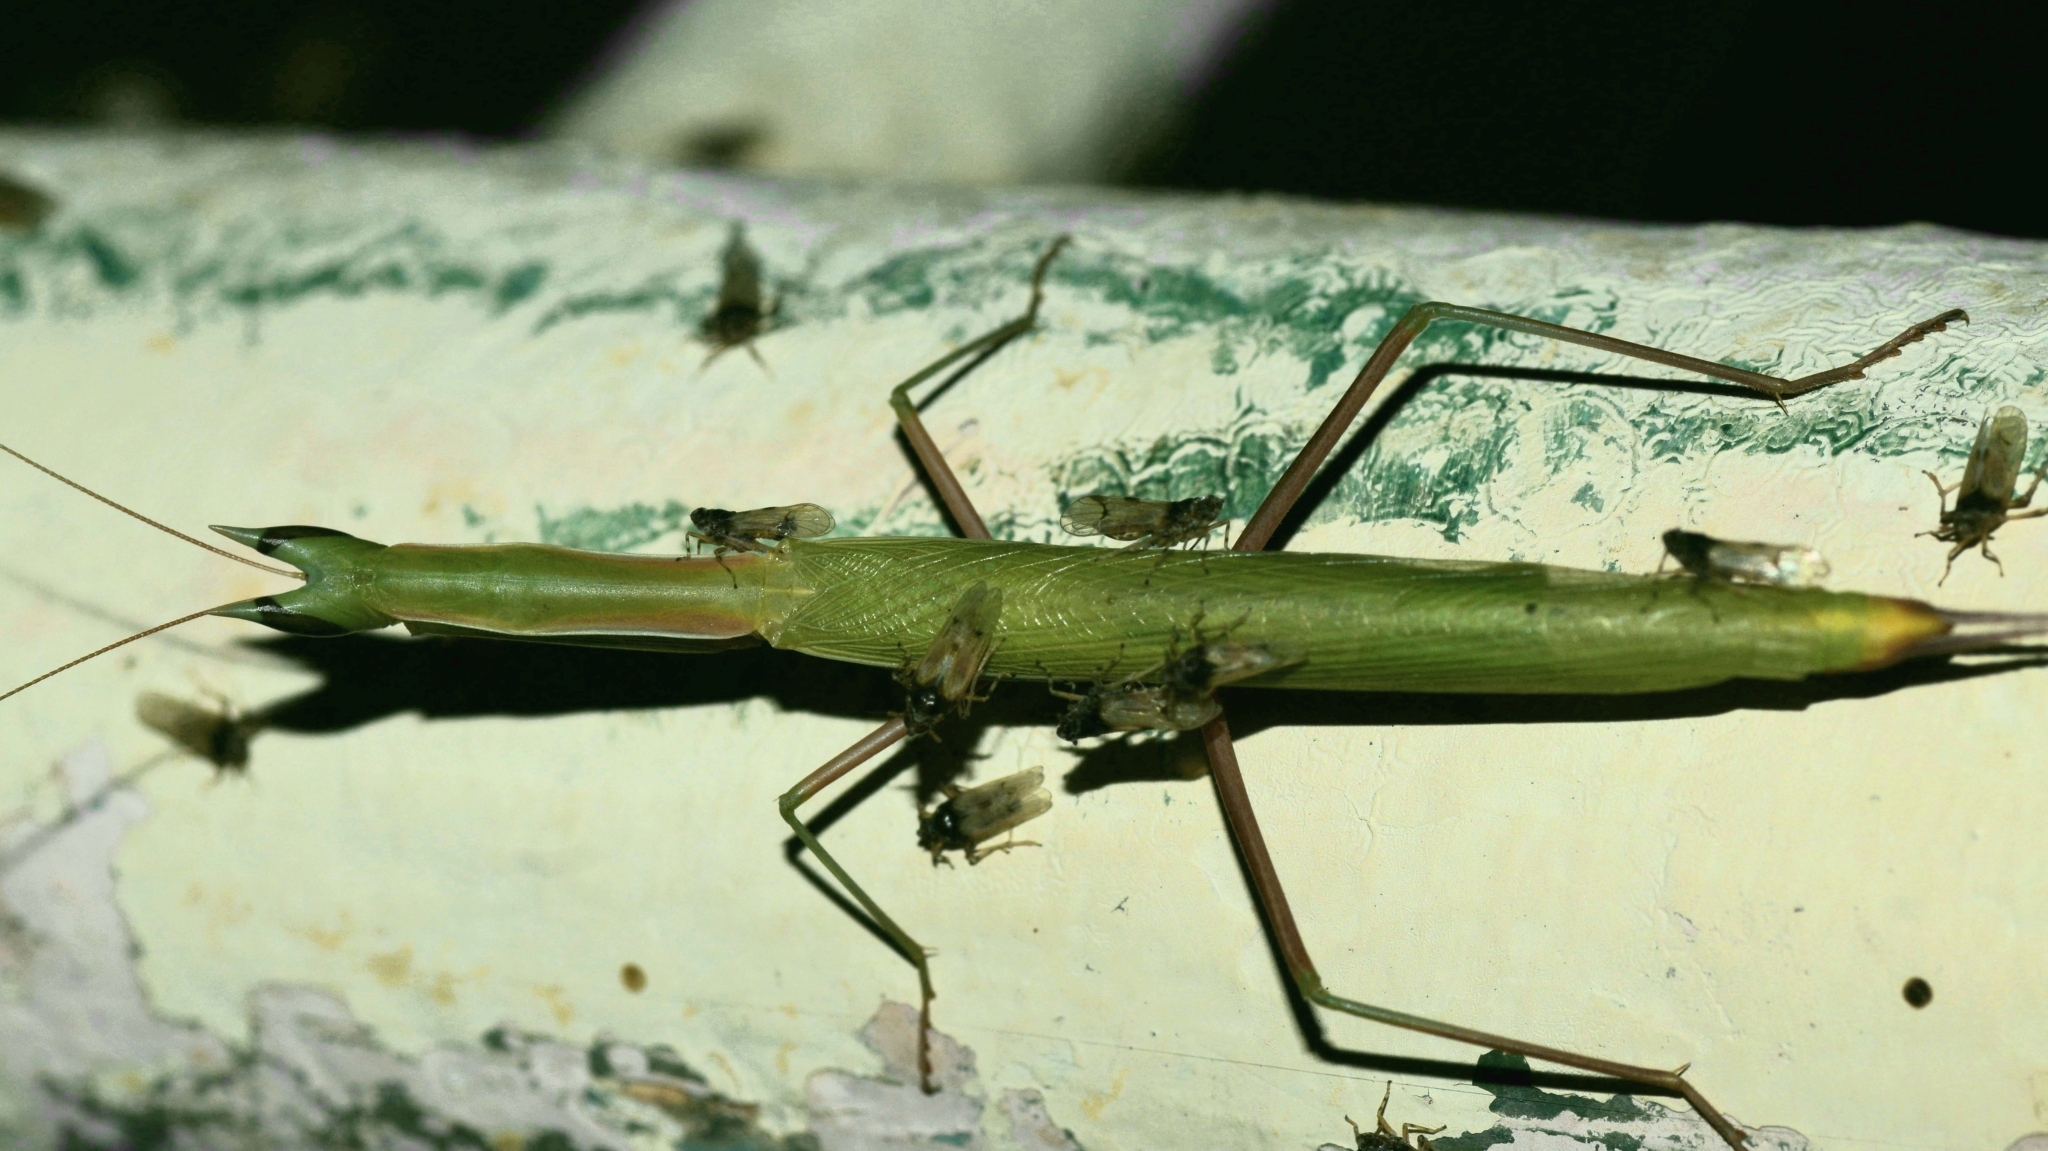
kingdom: Animalia
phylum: Arthropoda
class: Insecta
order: Mantodea
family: Eremiaphilidae
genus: Episcopomantis
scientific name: Episcopomantis chalybea
